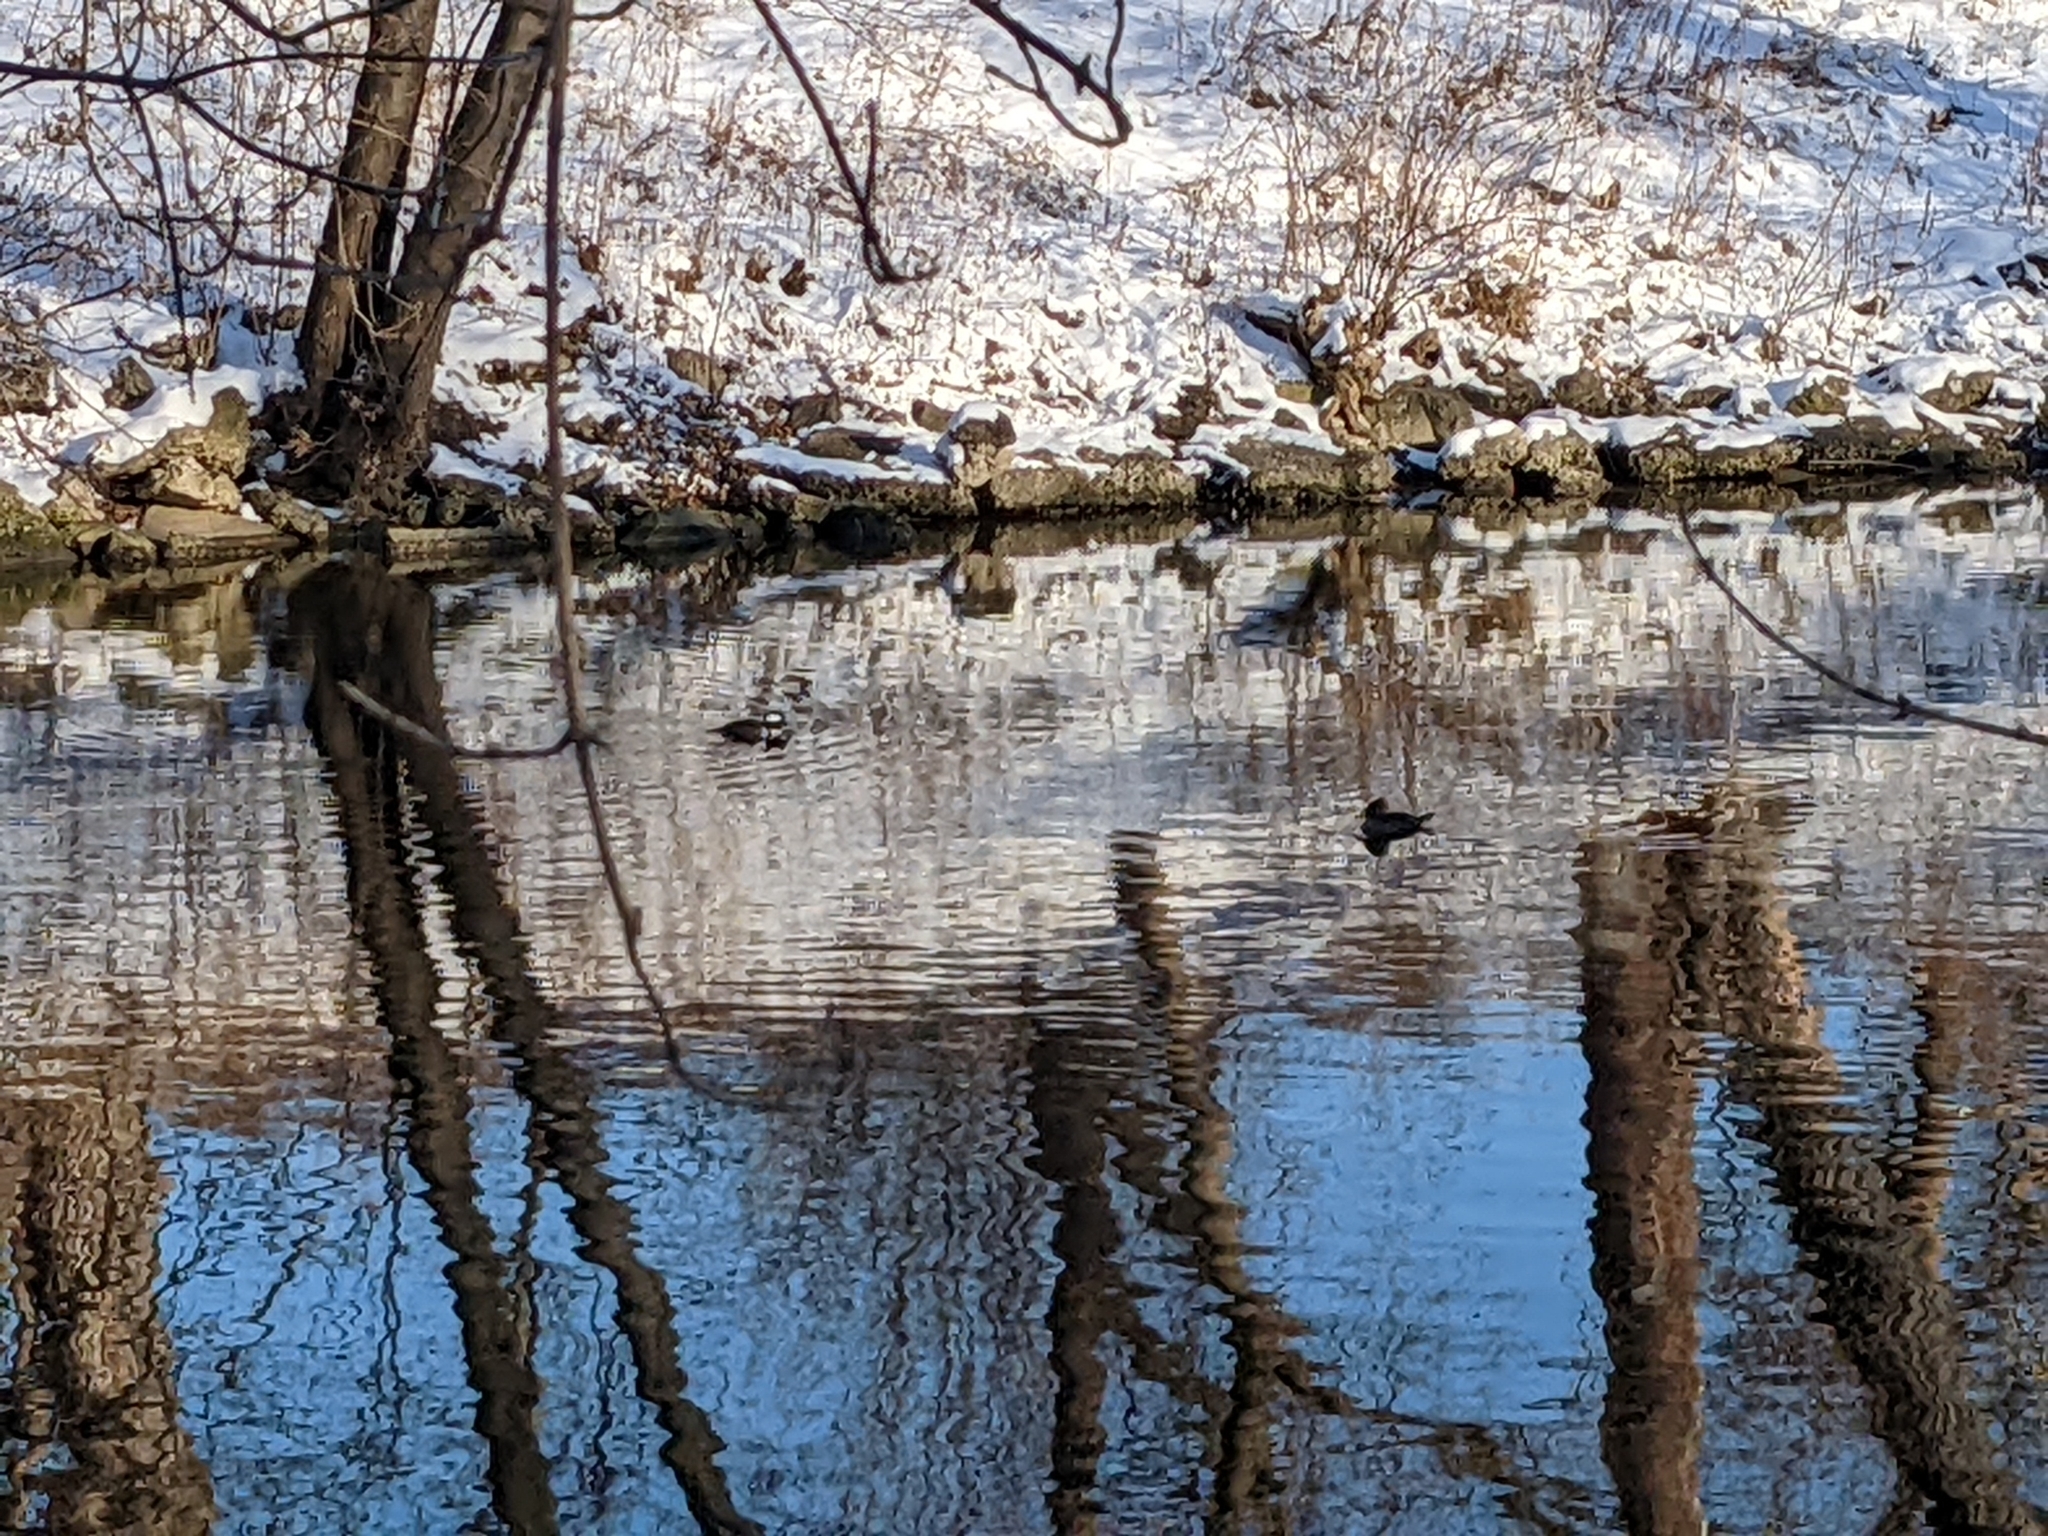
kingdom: Animalia
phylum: Chordata
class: Aves
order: Anseriformes
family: Anatidae
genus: Lophodytes
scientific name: Lophodytes cucullatus
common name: Hooded merganser
